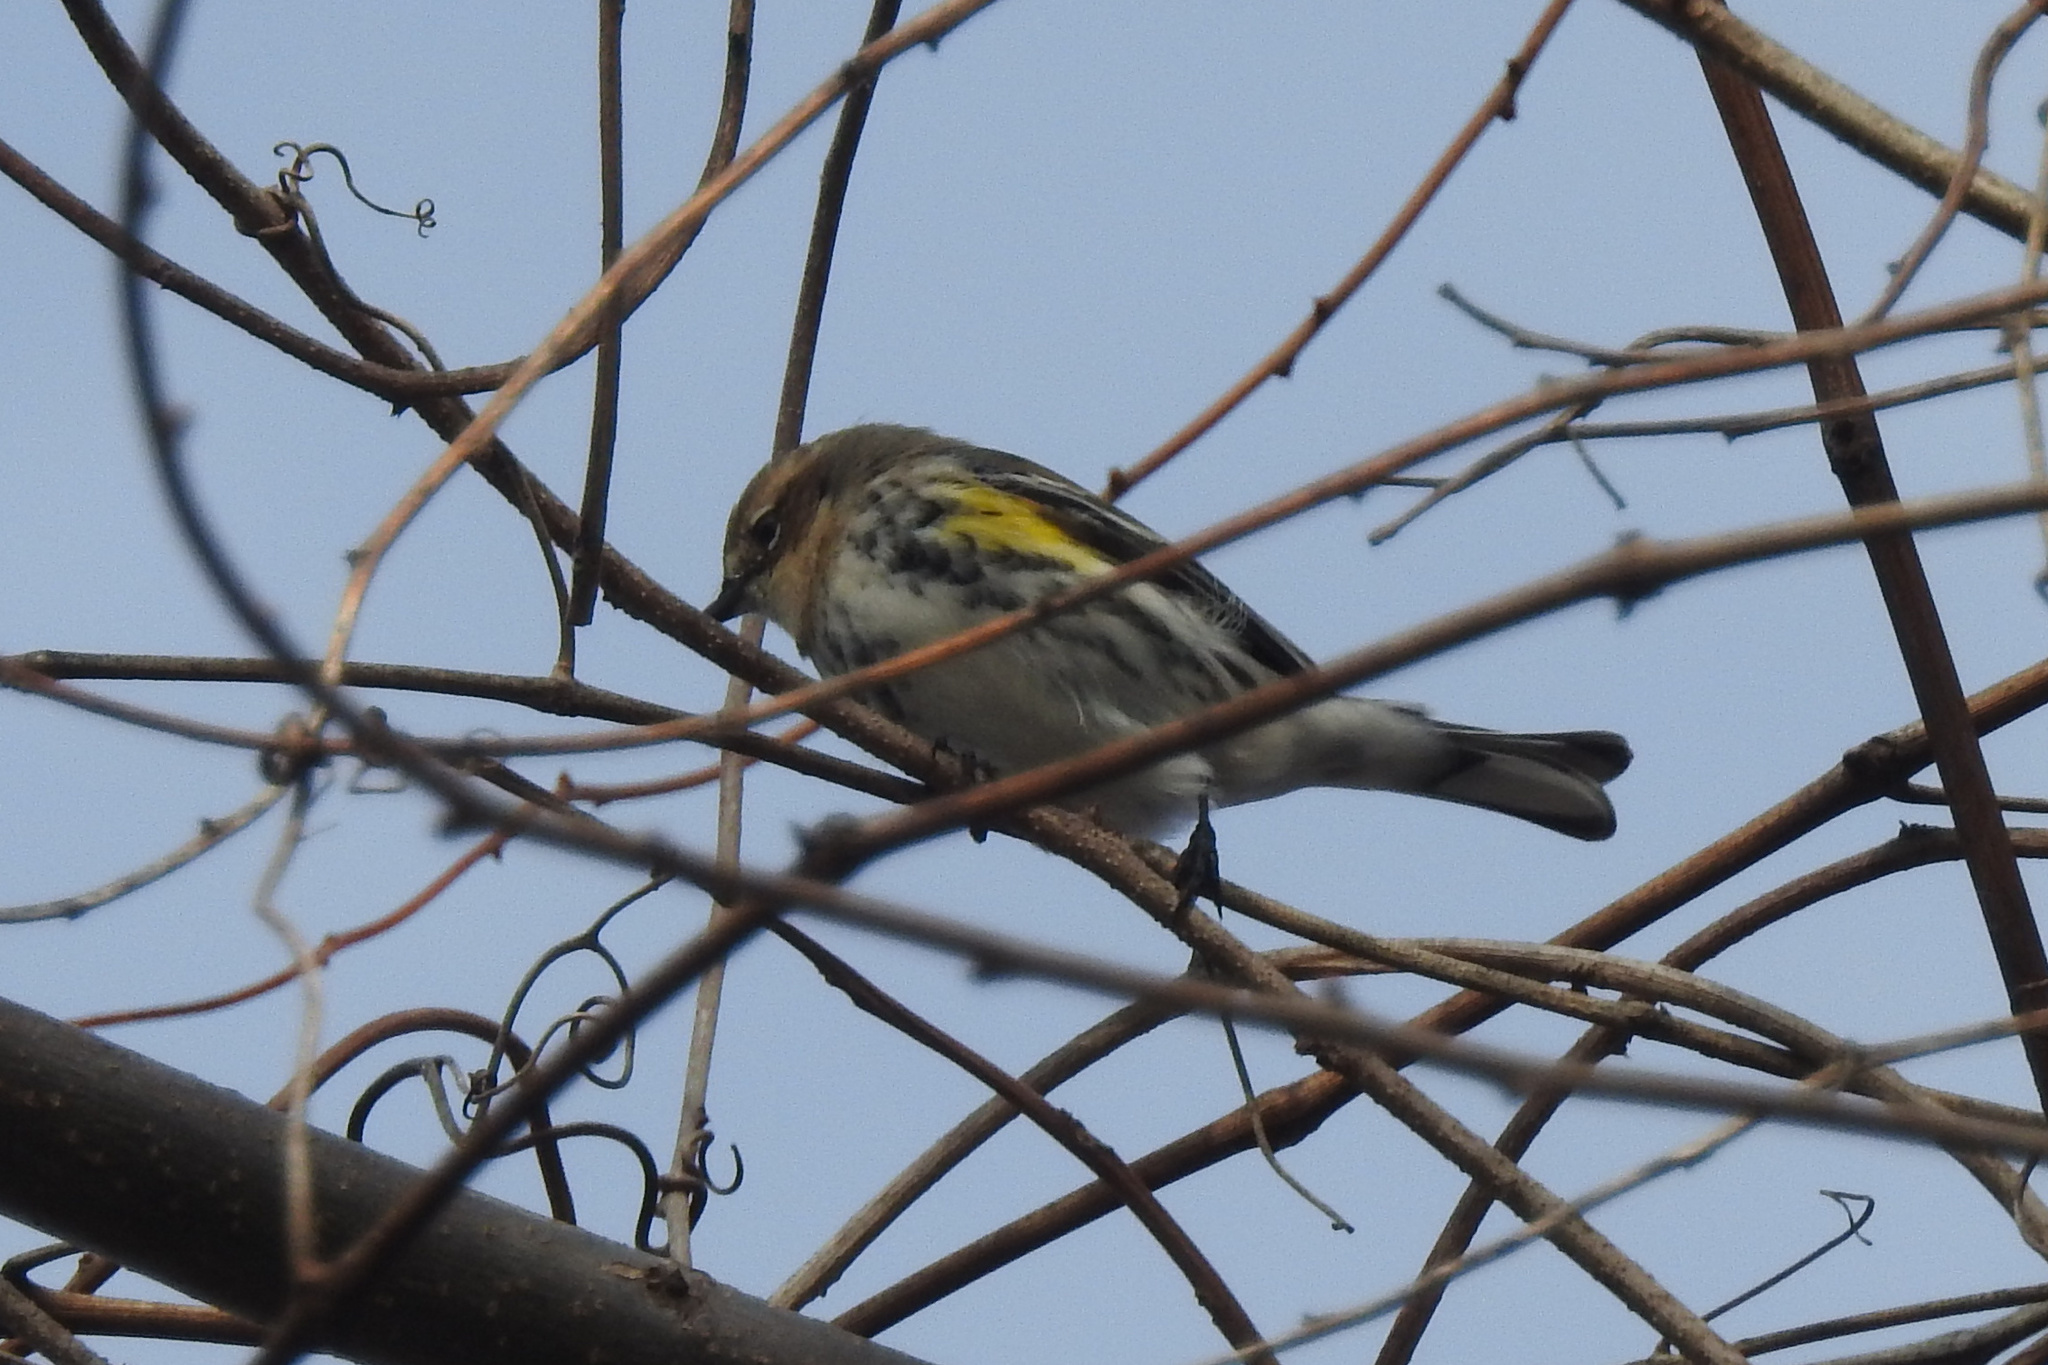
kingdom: Animalia
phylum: Chordata
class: Aves
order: Passeriformes
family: Parulidae
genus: Setophaga
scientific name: Setophaga coronata
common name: Myrtle warbler
